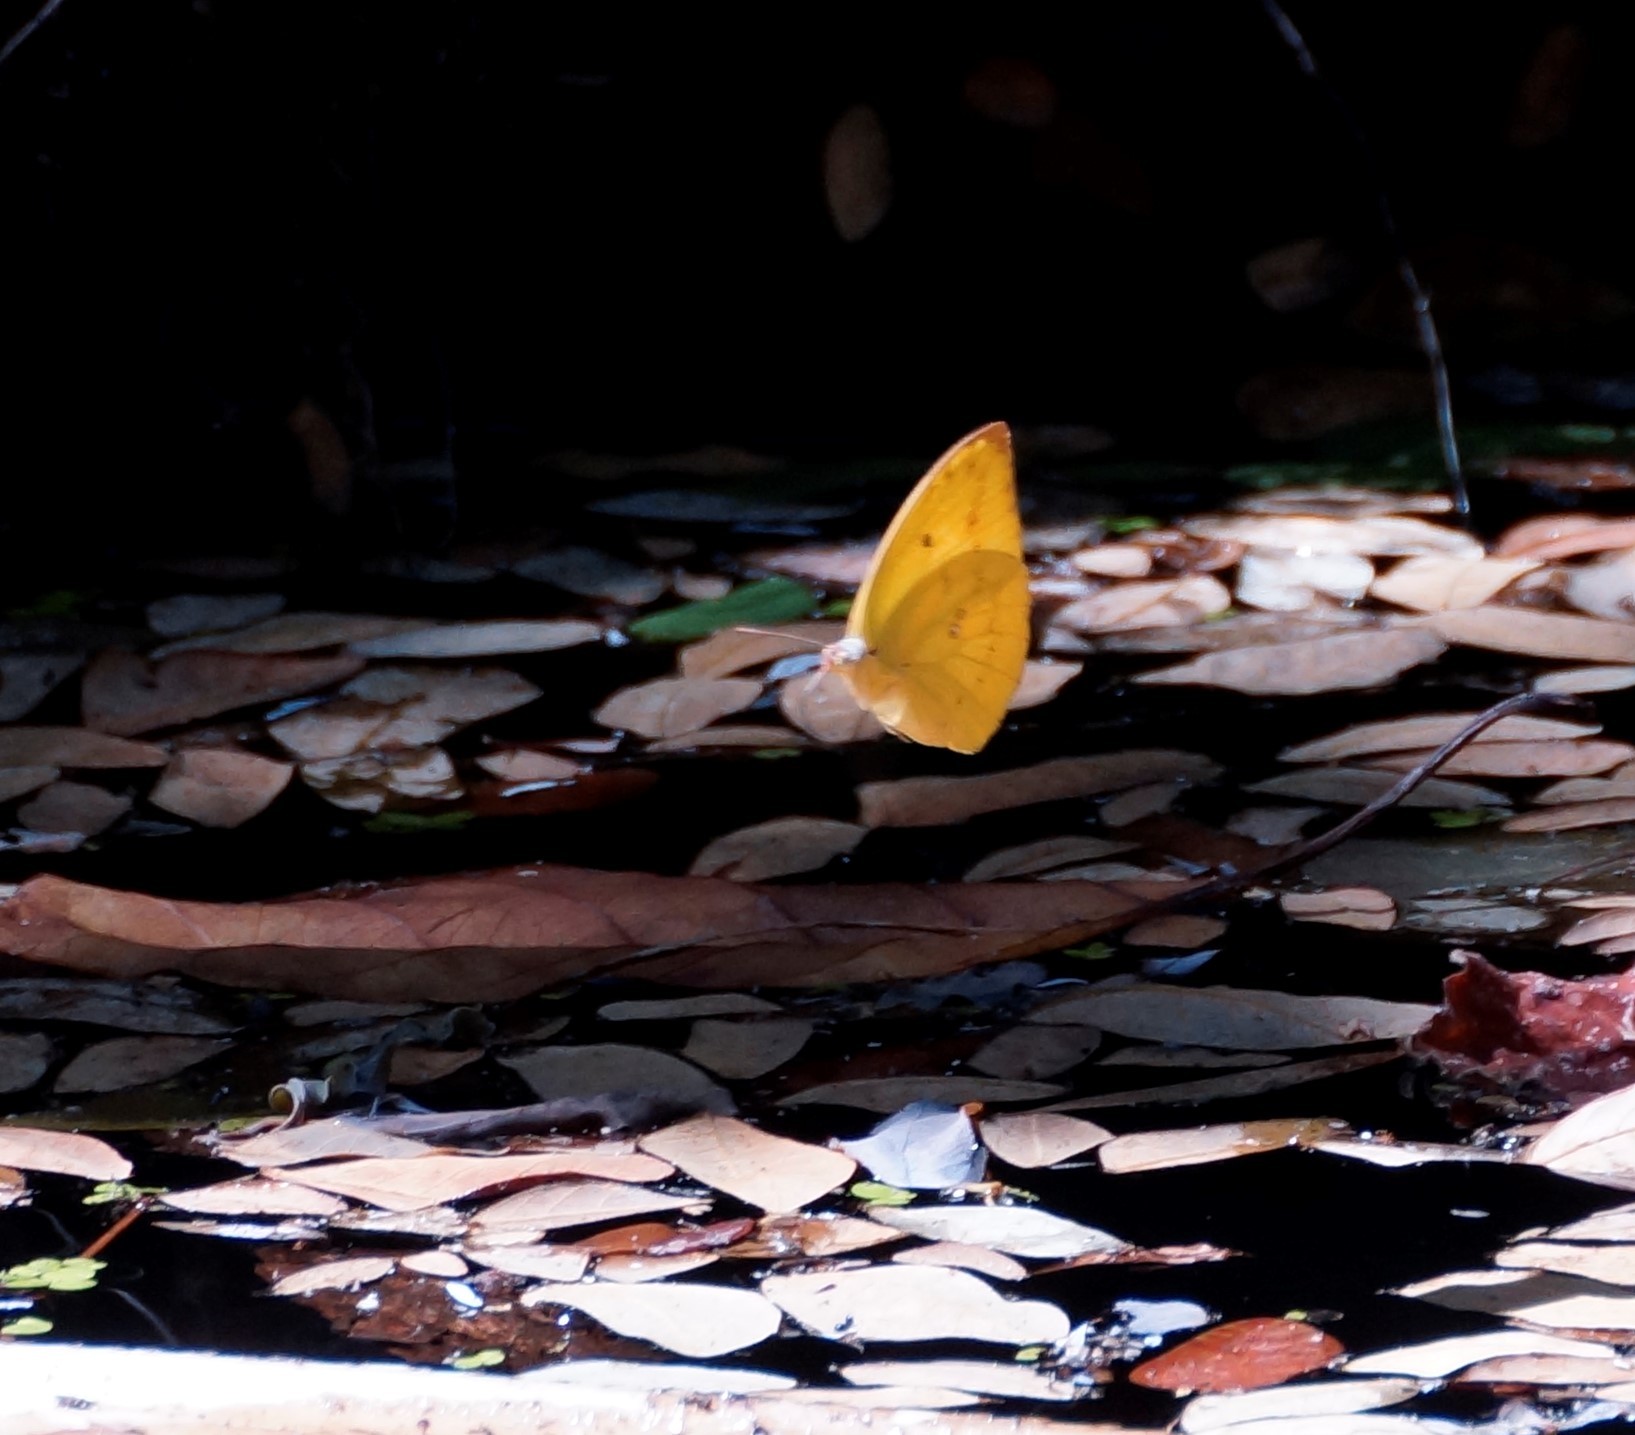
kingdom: Animalia
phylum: Arthropoda
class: Insecta
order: Lepidoptera
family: Pieridae
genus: Catopsilia
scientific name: Catopsilia scylla
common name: Orange emigrant
